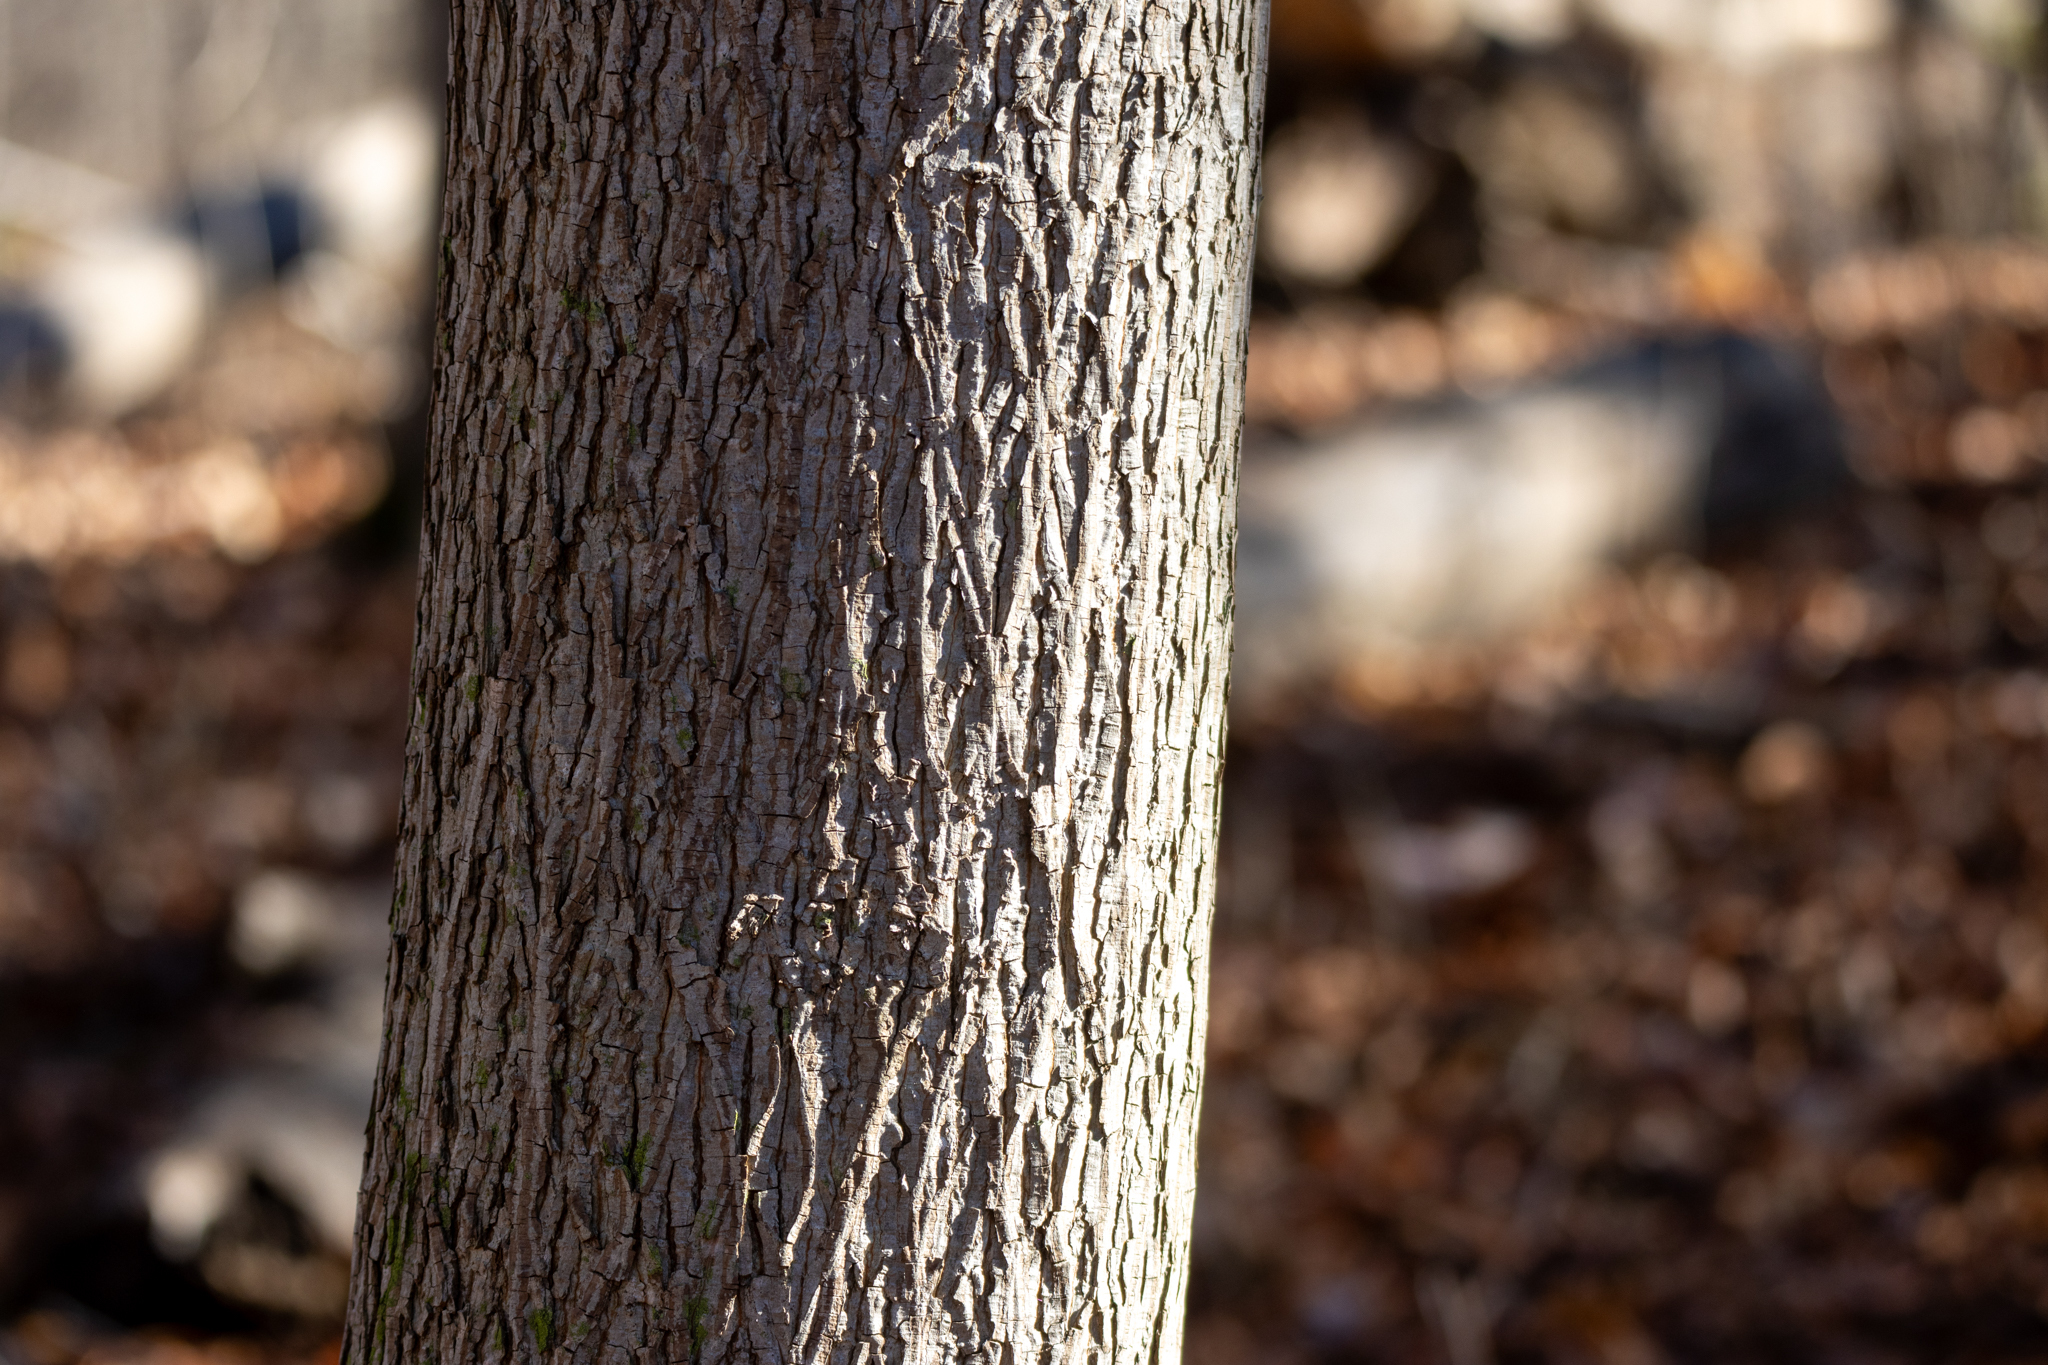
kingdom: Plantae
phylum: Tracheophyta
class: Magnoliopsida
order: Fagales
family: Juglandaceae
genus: Carya
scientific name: Carya cordiformis
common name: Bitternut hickory
